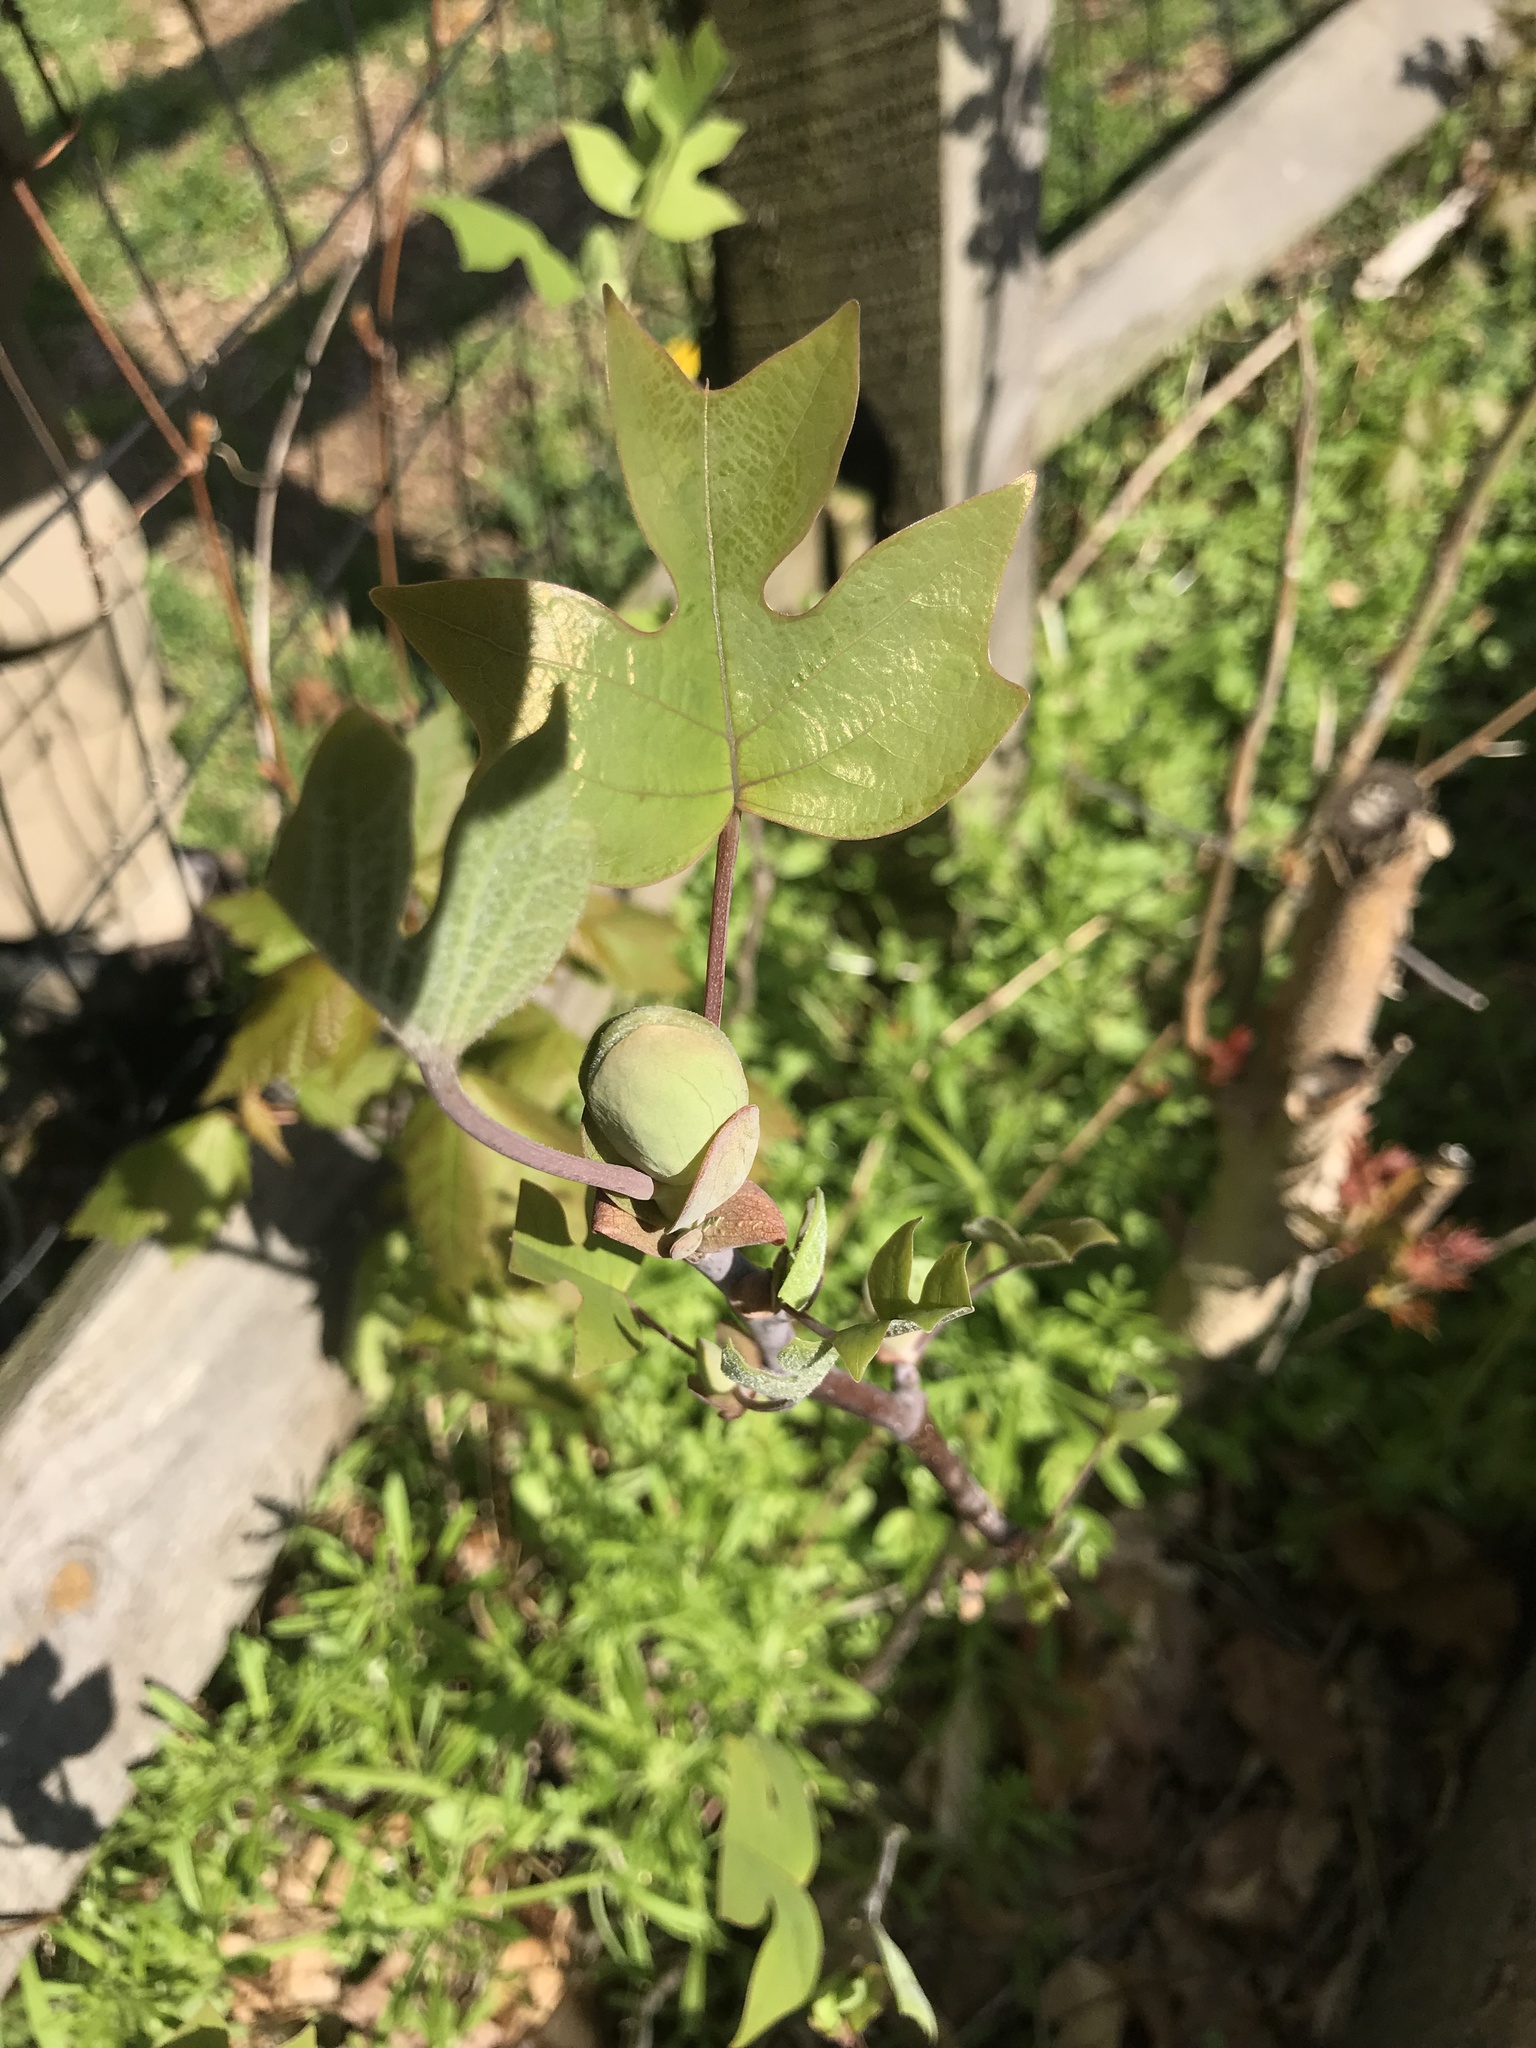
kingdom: Plantae
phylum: Tracheophyta
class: Magnoliopsida
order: Magnoliales
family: Magnoliaceae
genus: Liriodendron
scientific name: Liriodendron tulipifera
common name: Tulip tree
